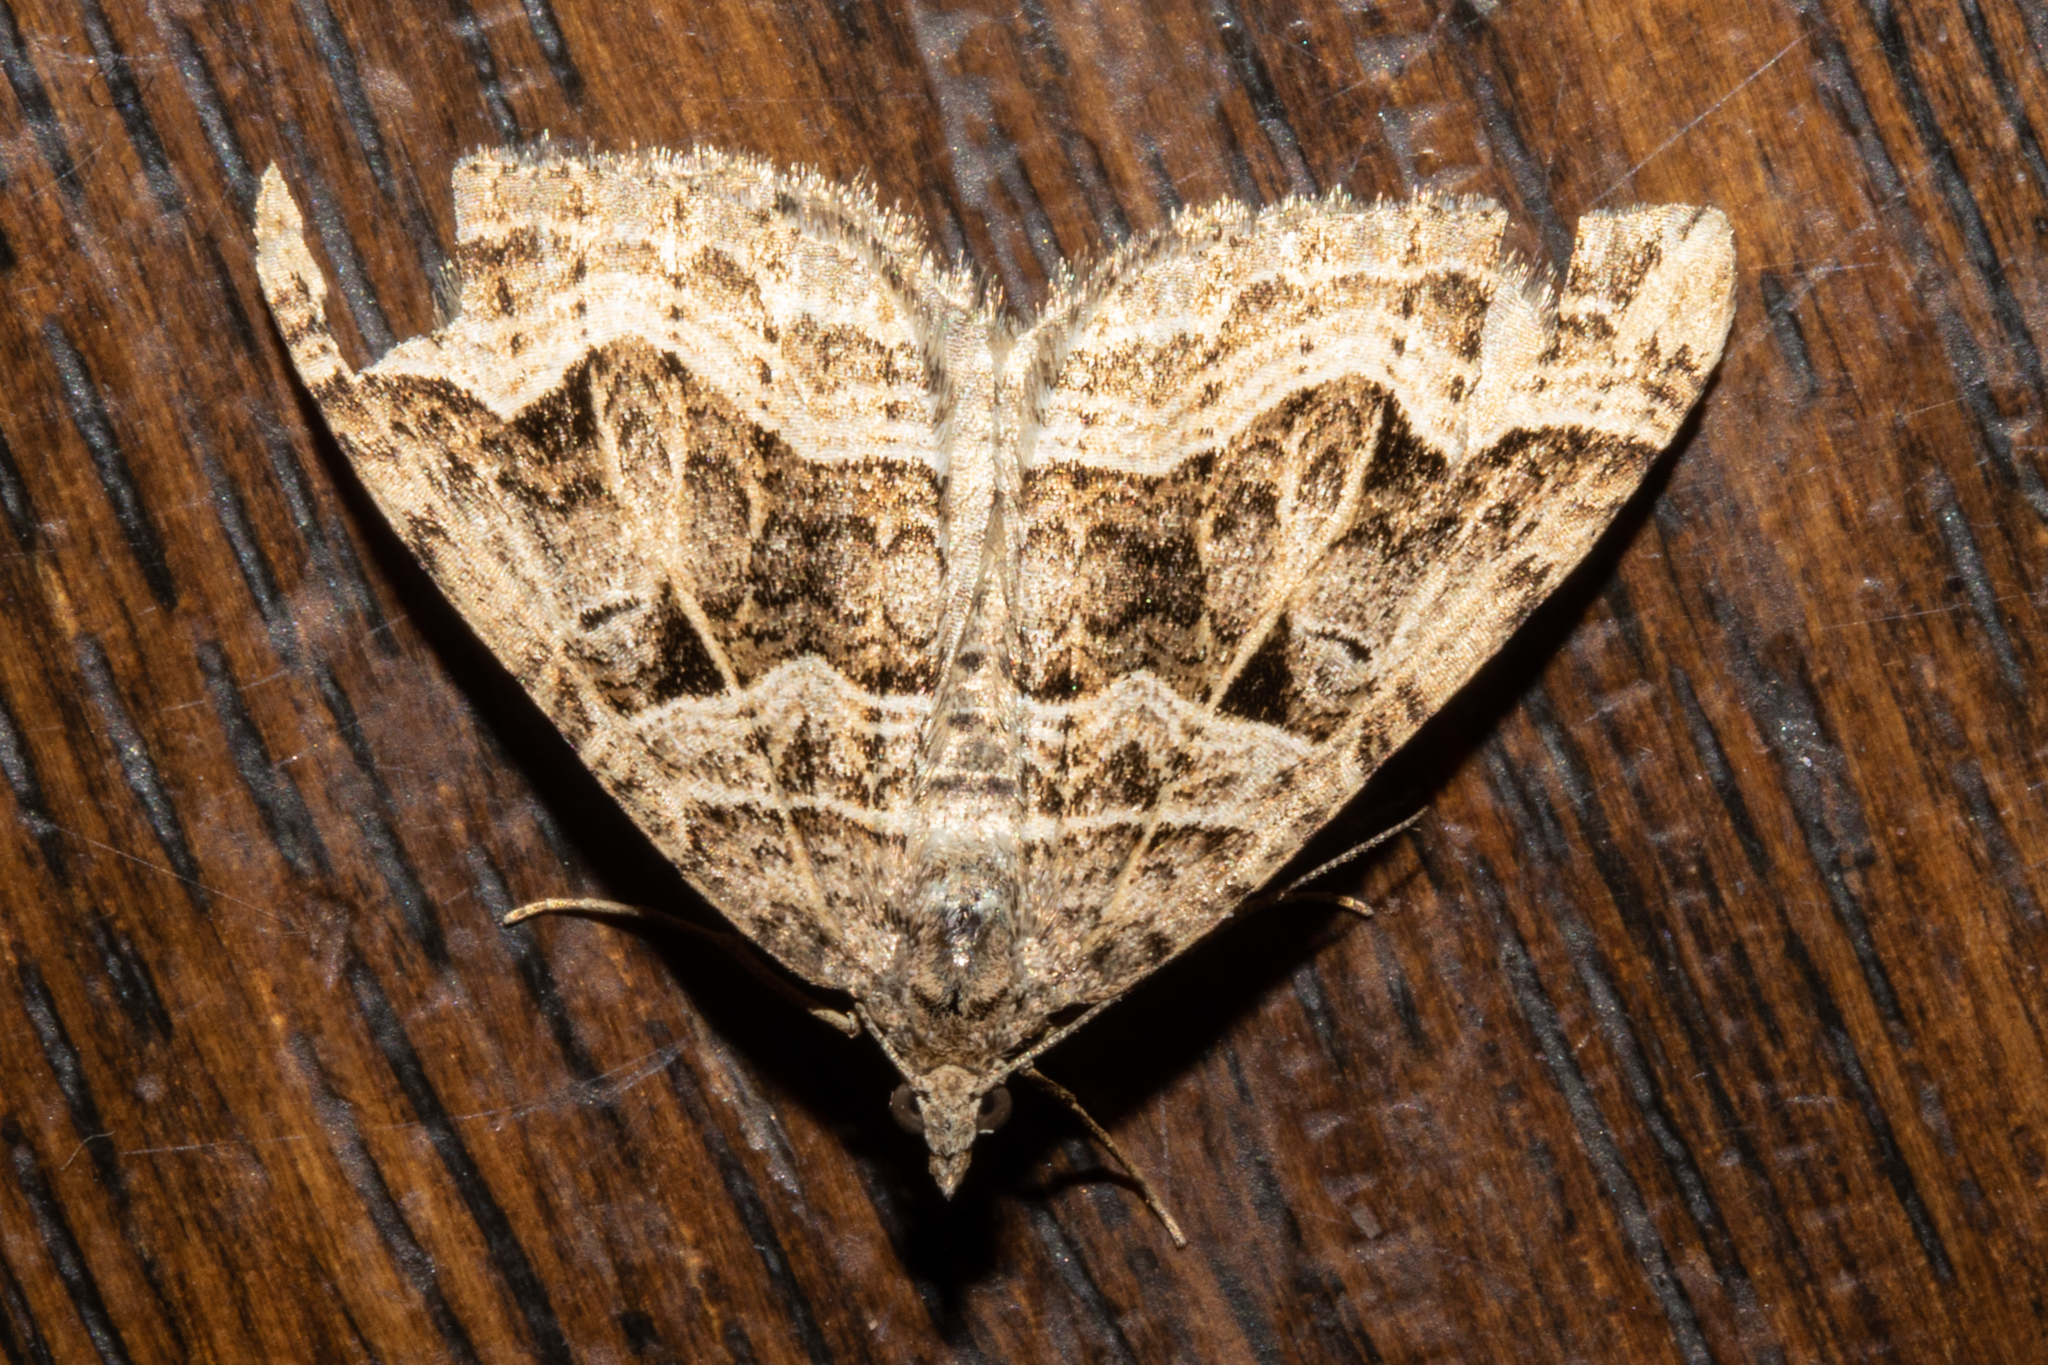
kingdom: Animalia
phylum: Arthropoda
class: Insecta
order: Lepidoptera
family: Geometridae
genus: Xanthorhoe
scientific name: Xanthorhoe semifissata
